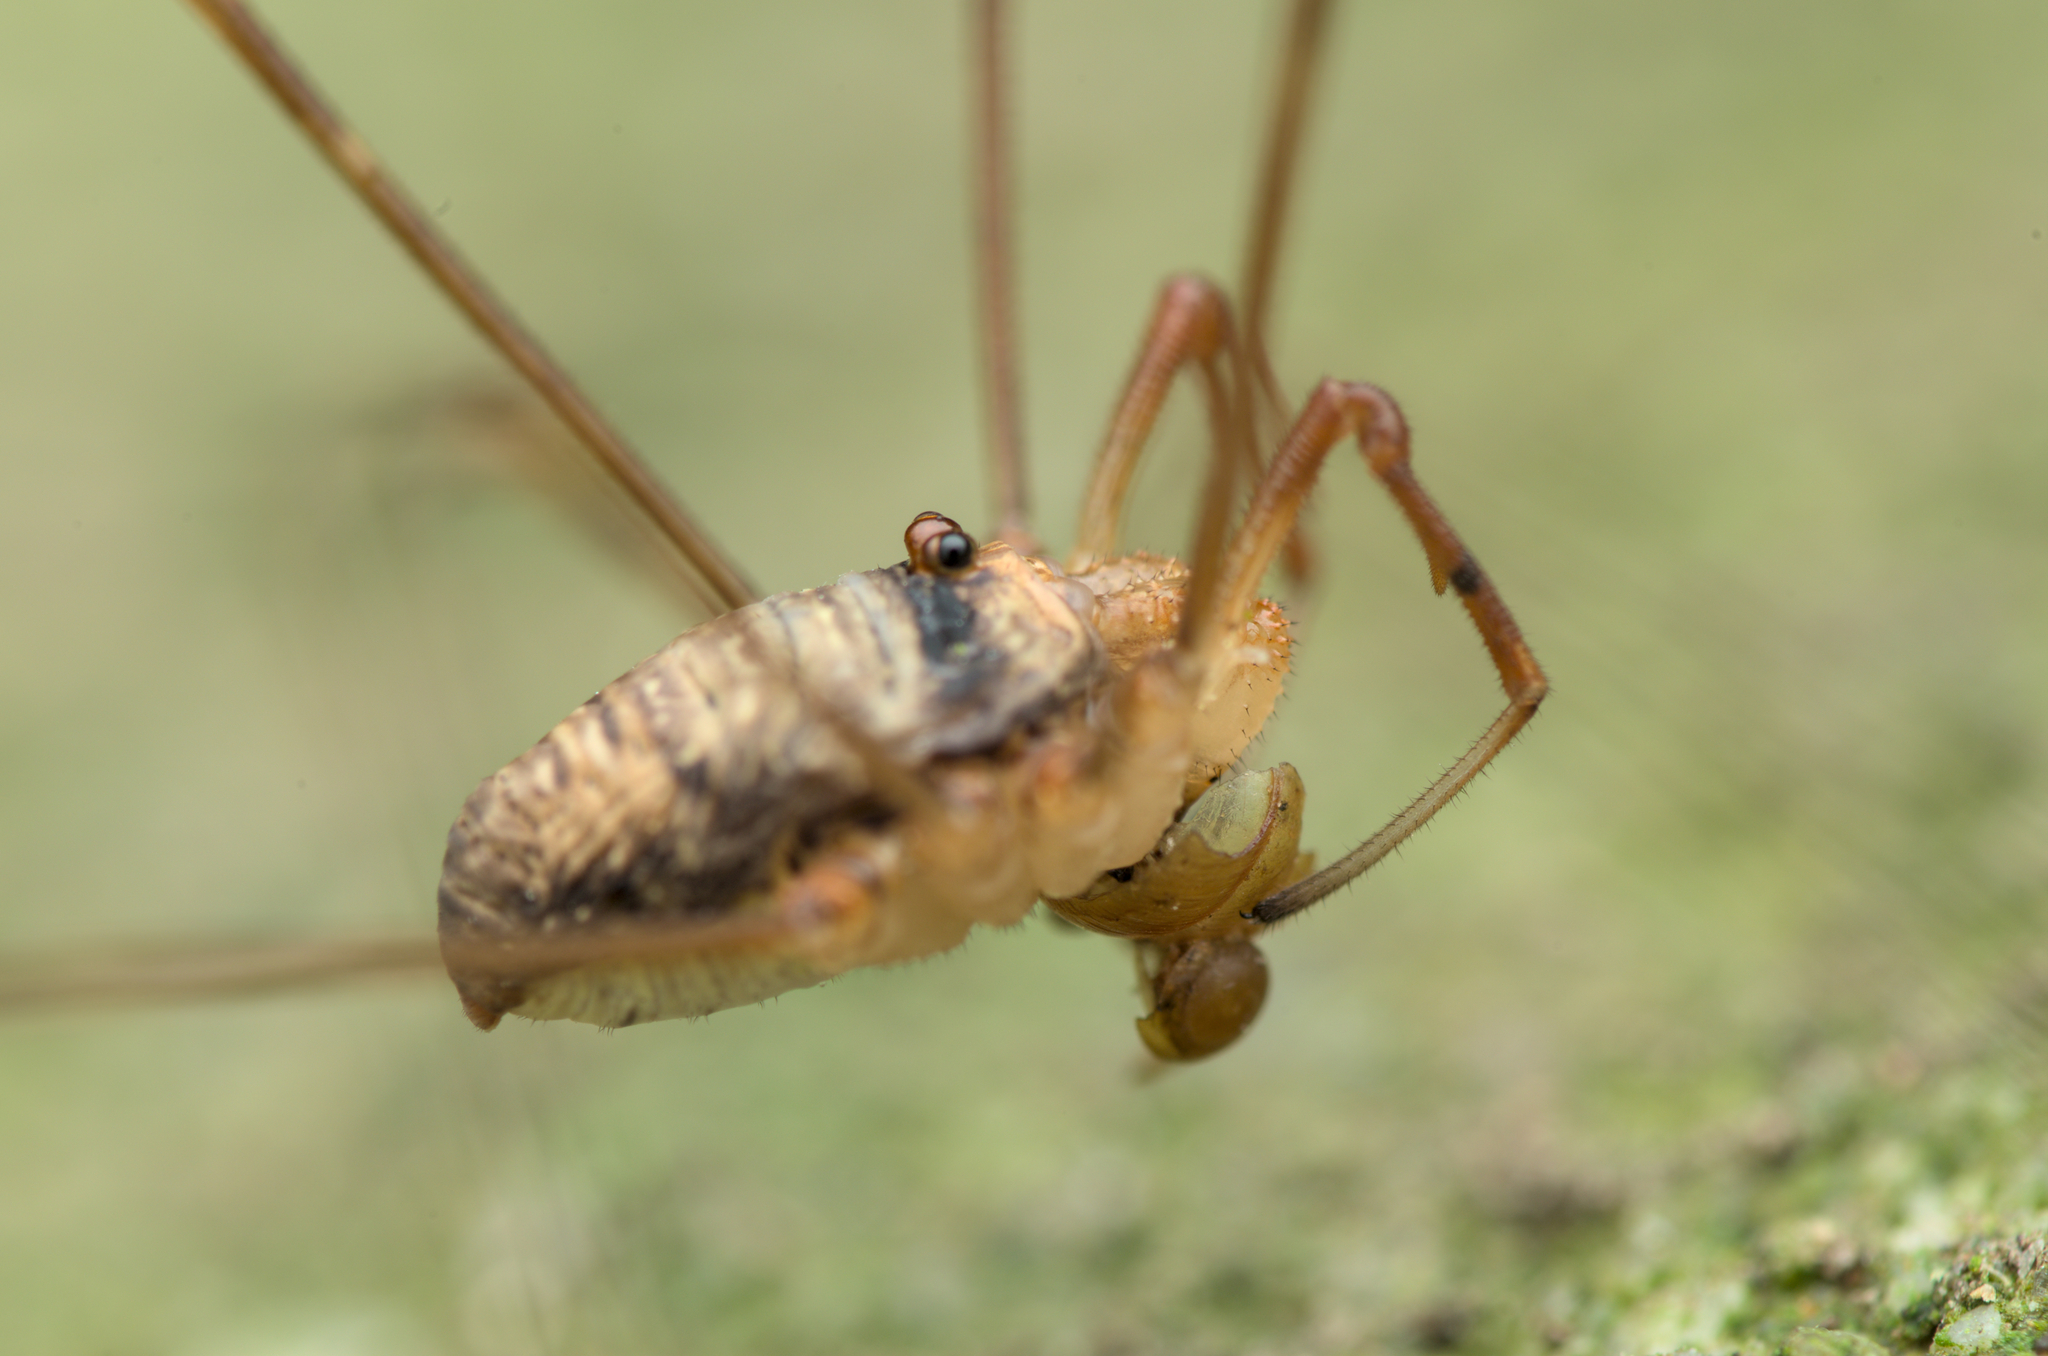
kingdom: Animalia
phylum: Arthropoda
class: Arachnida
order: Opiliones
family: Phalangiidae
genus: Dicranopalpus
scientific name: Dicranopalpus ramosus
